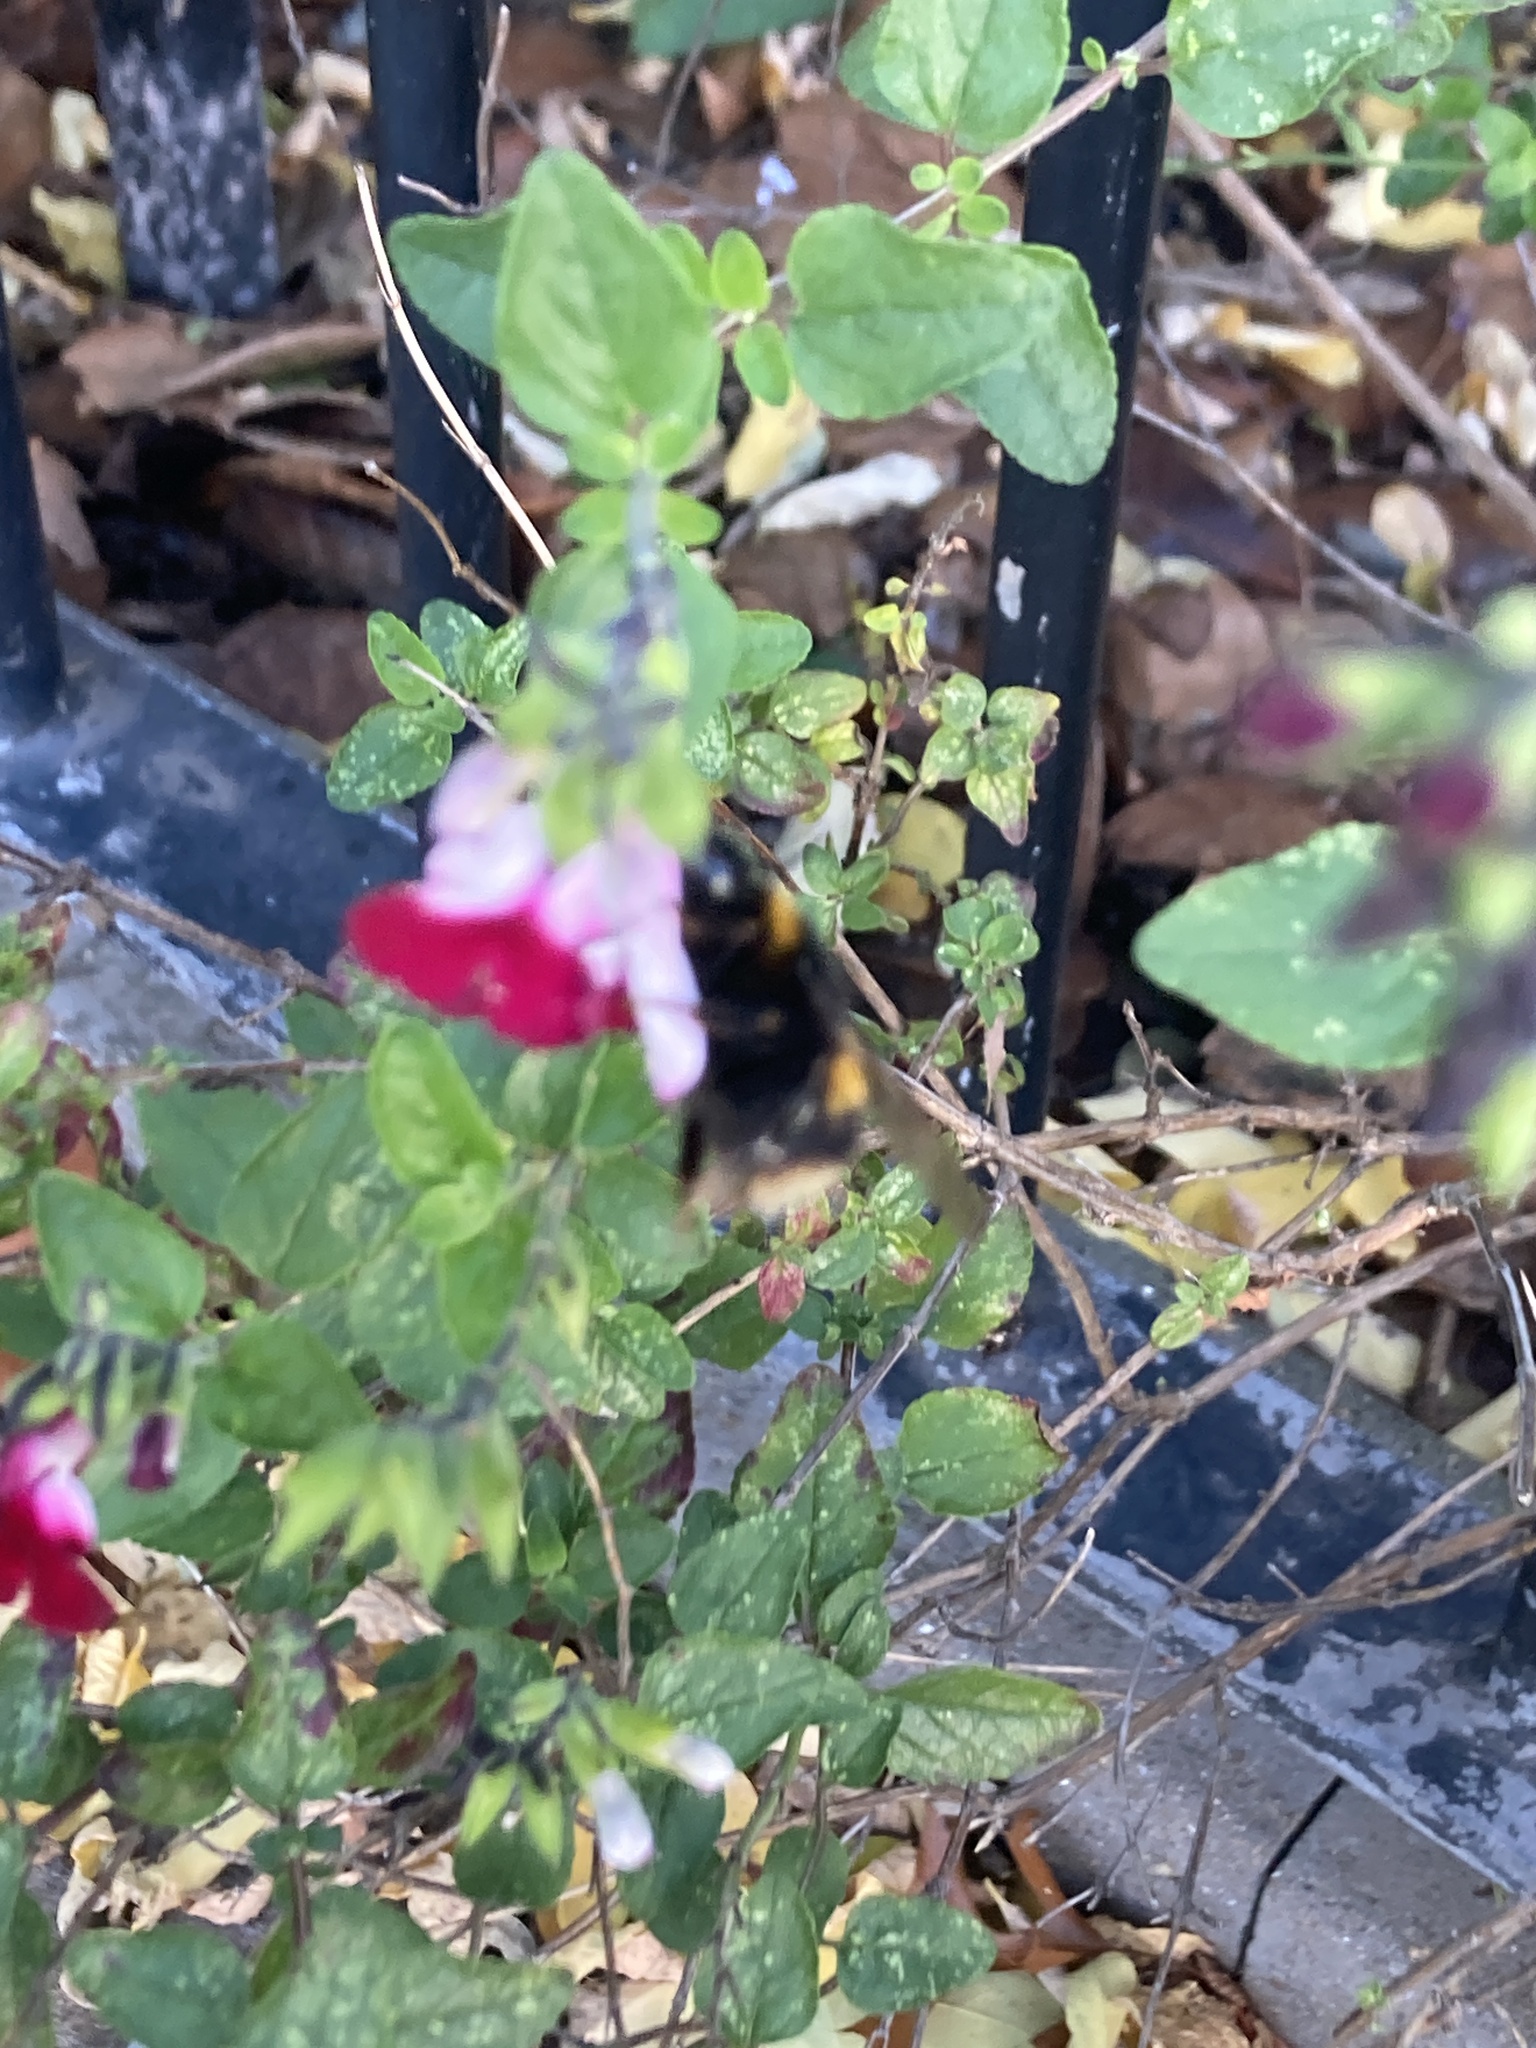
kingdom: Animalia
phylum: Arthropoda
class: Insecta
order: Hymenoptera
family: Apidae
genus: Bombus
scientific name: Bombus terrestris
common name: Buff-tailed bumblebee
